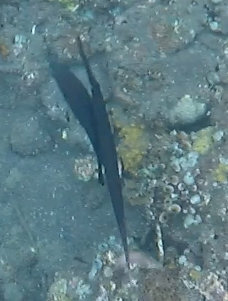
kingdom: Animalia
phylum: Chordata
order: Syngnathiformes
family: Aulostomidae
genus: Aulostomus
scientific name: Aulostomus chinensis
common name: Chinese trumpetfish
